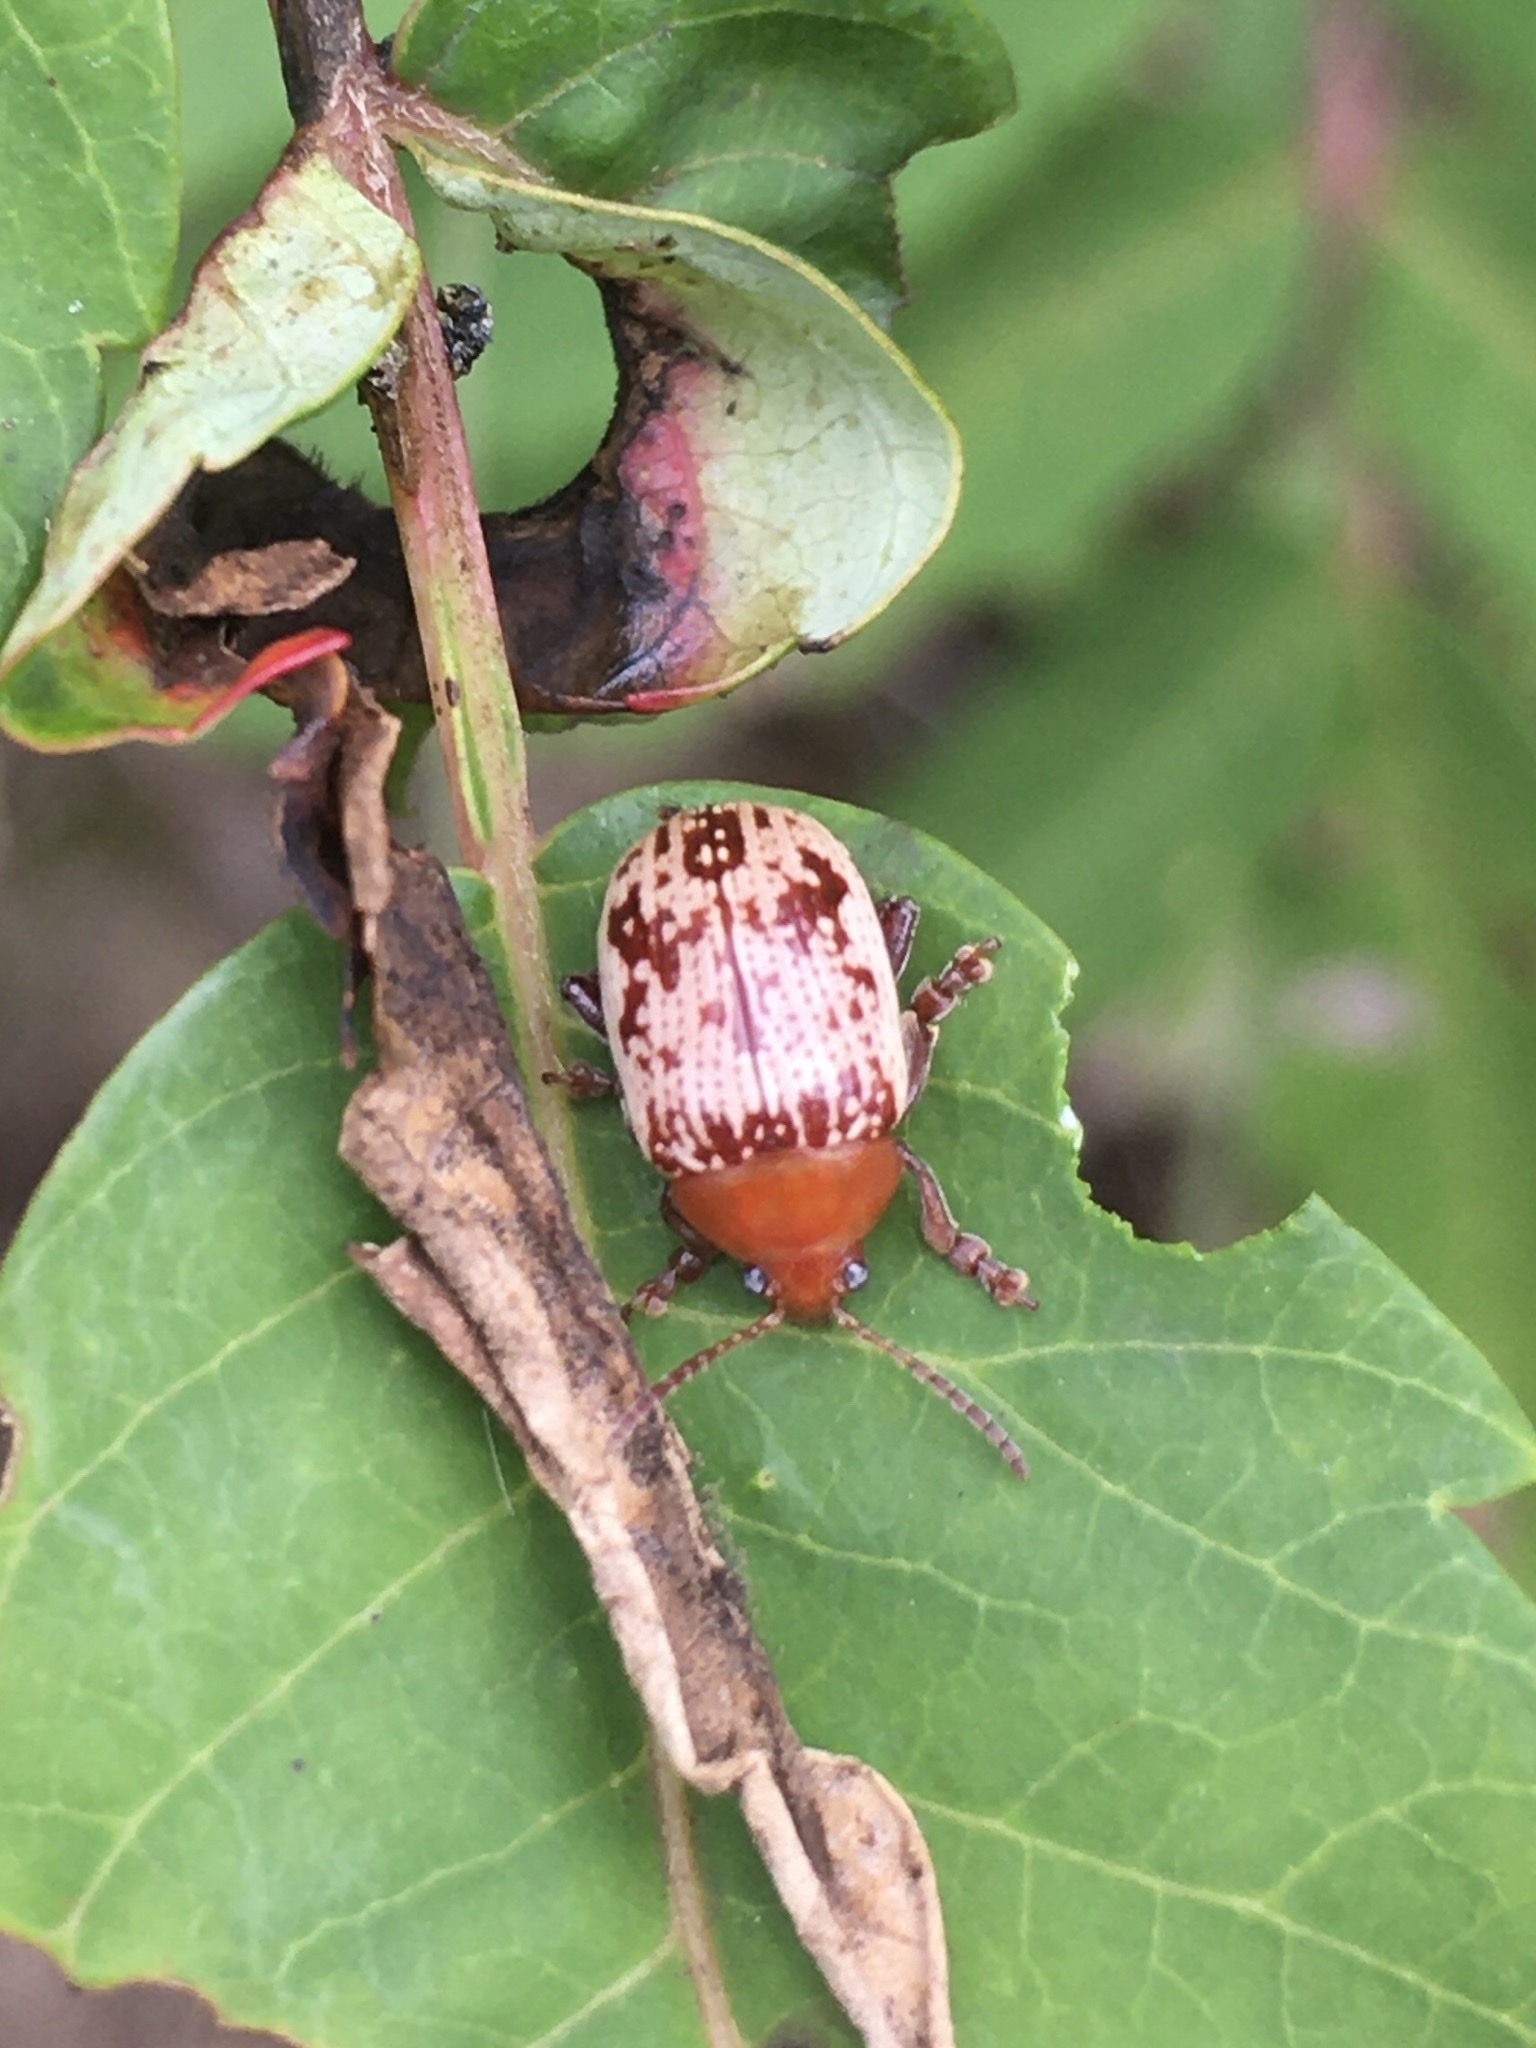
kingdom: Animalia
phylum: Arthropoda
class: Insecta
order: Coleoptera
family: Chrysomelidae
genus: Blepharida
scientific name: Blepharida rhois
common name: Sumac flea beetle
